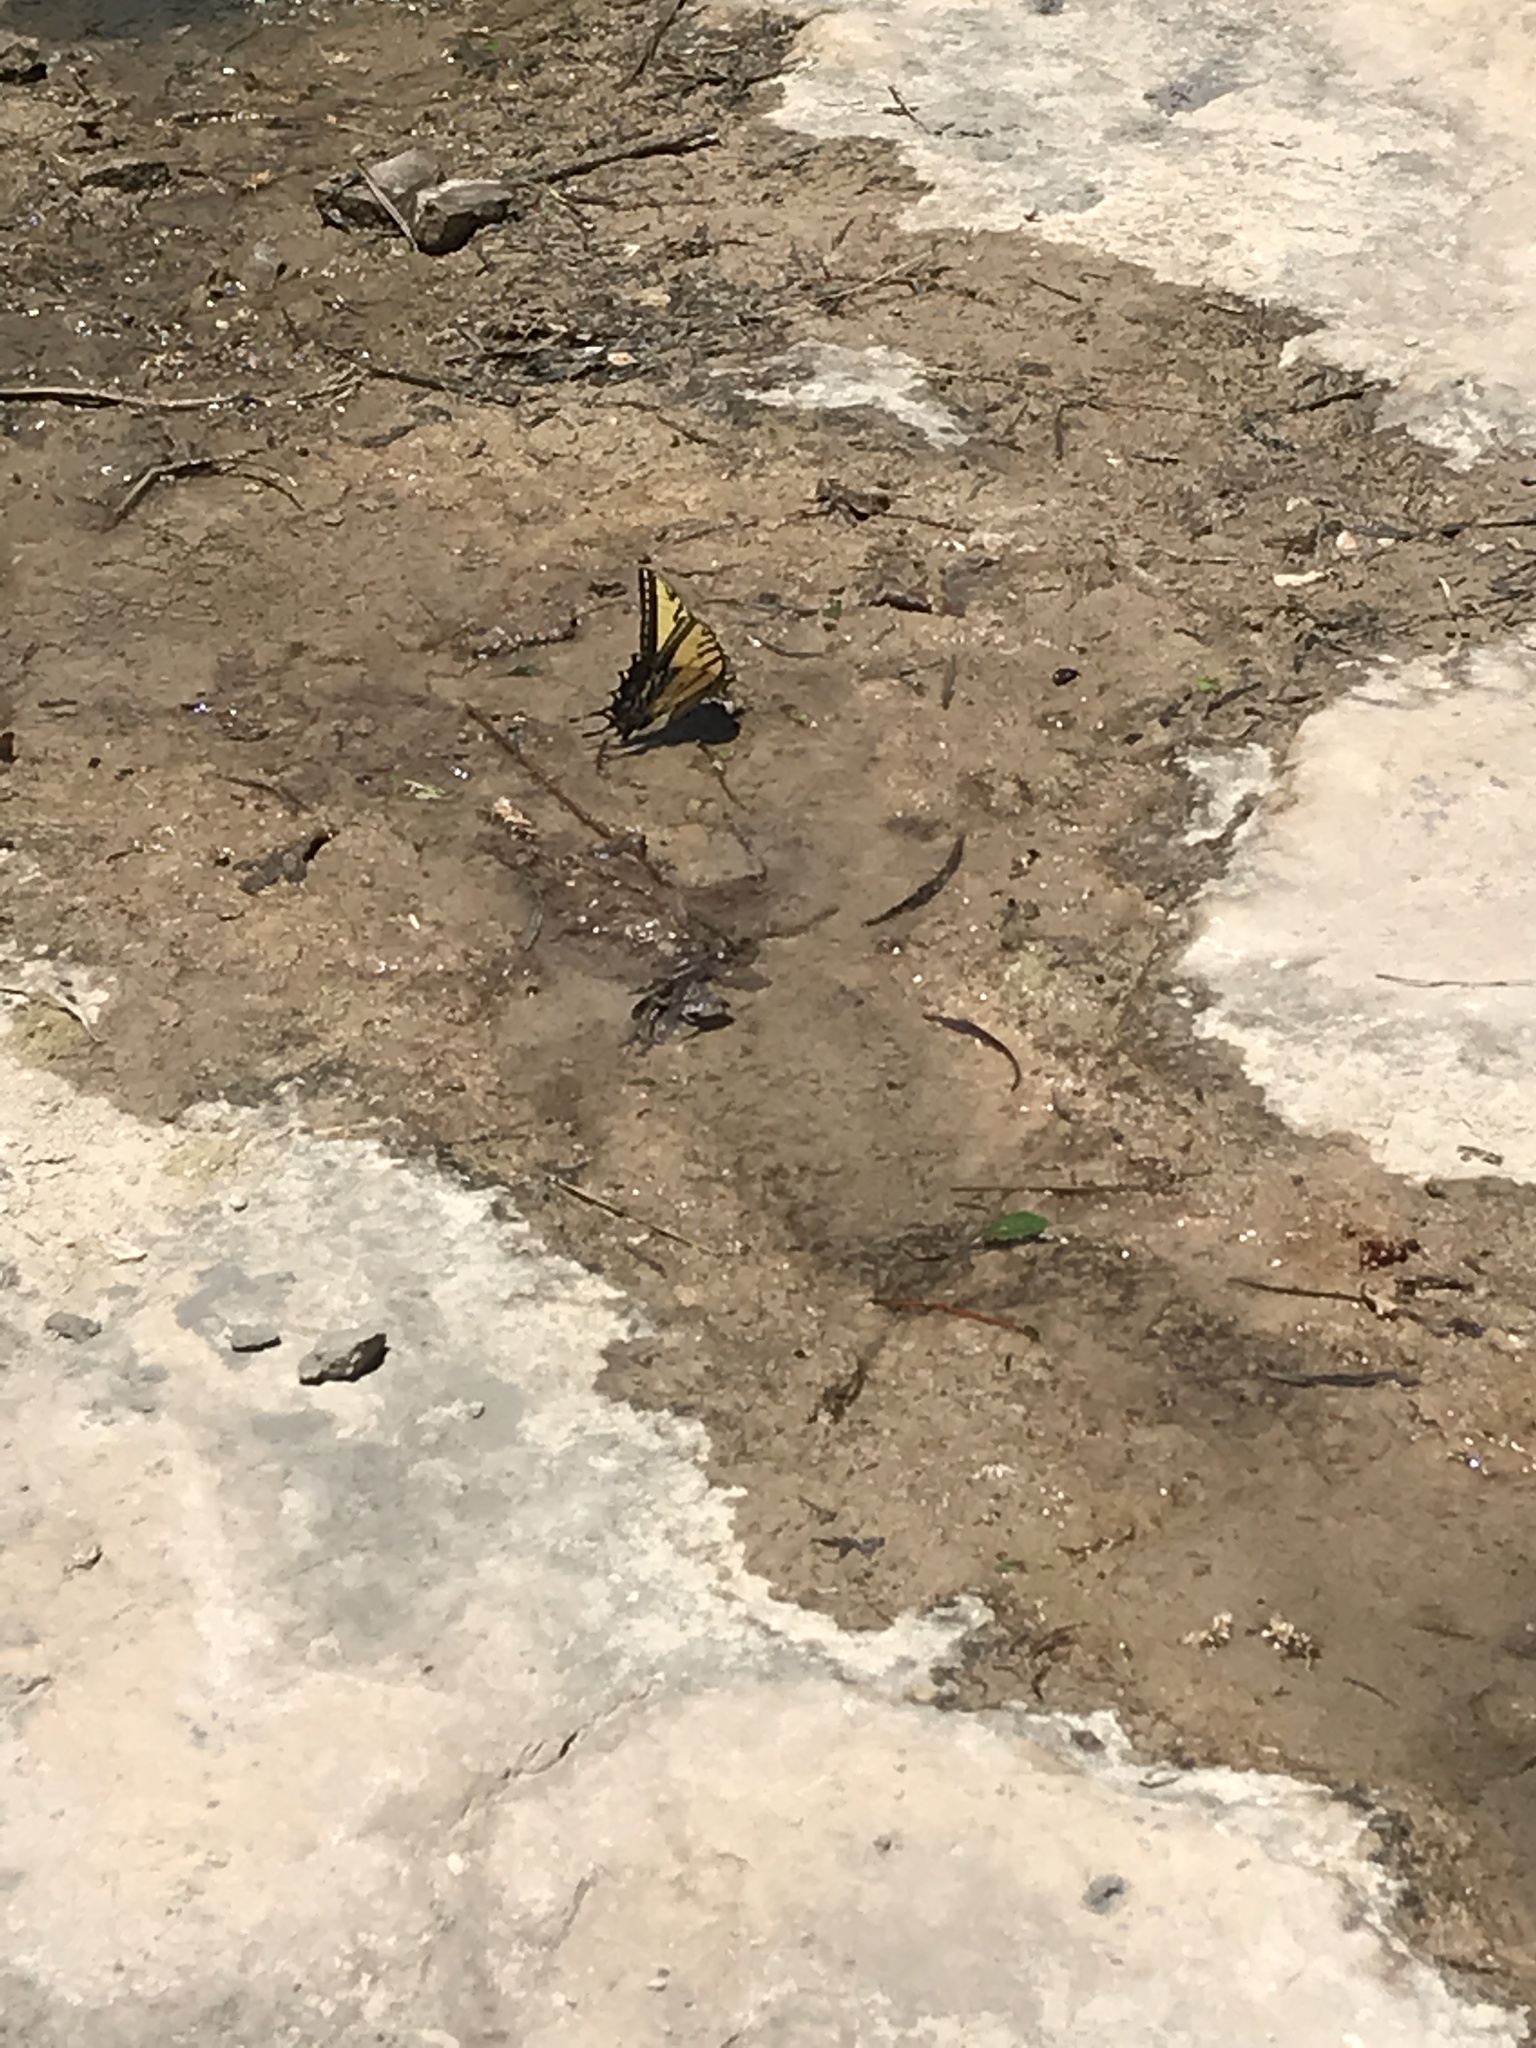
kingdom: Animalia
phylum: Arthropoda
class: Insecta
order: Lepidoptera
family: Papilionidae
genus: Papilio
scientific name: Papilio multicaudata
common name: Two-tailed tiger swallowtail
